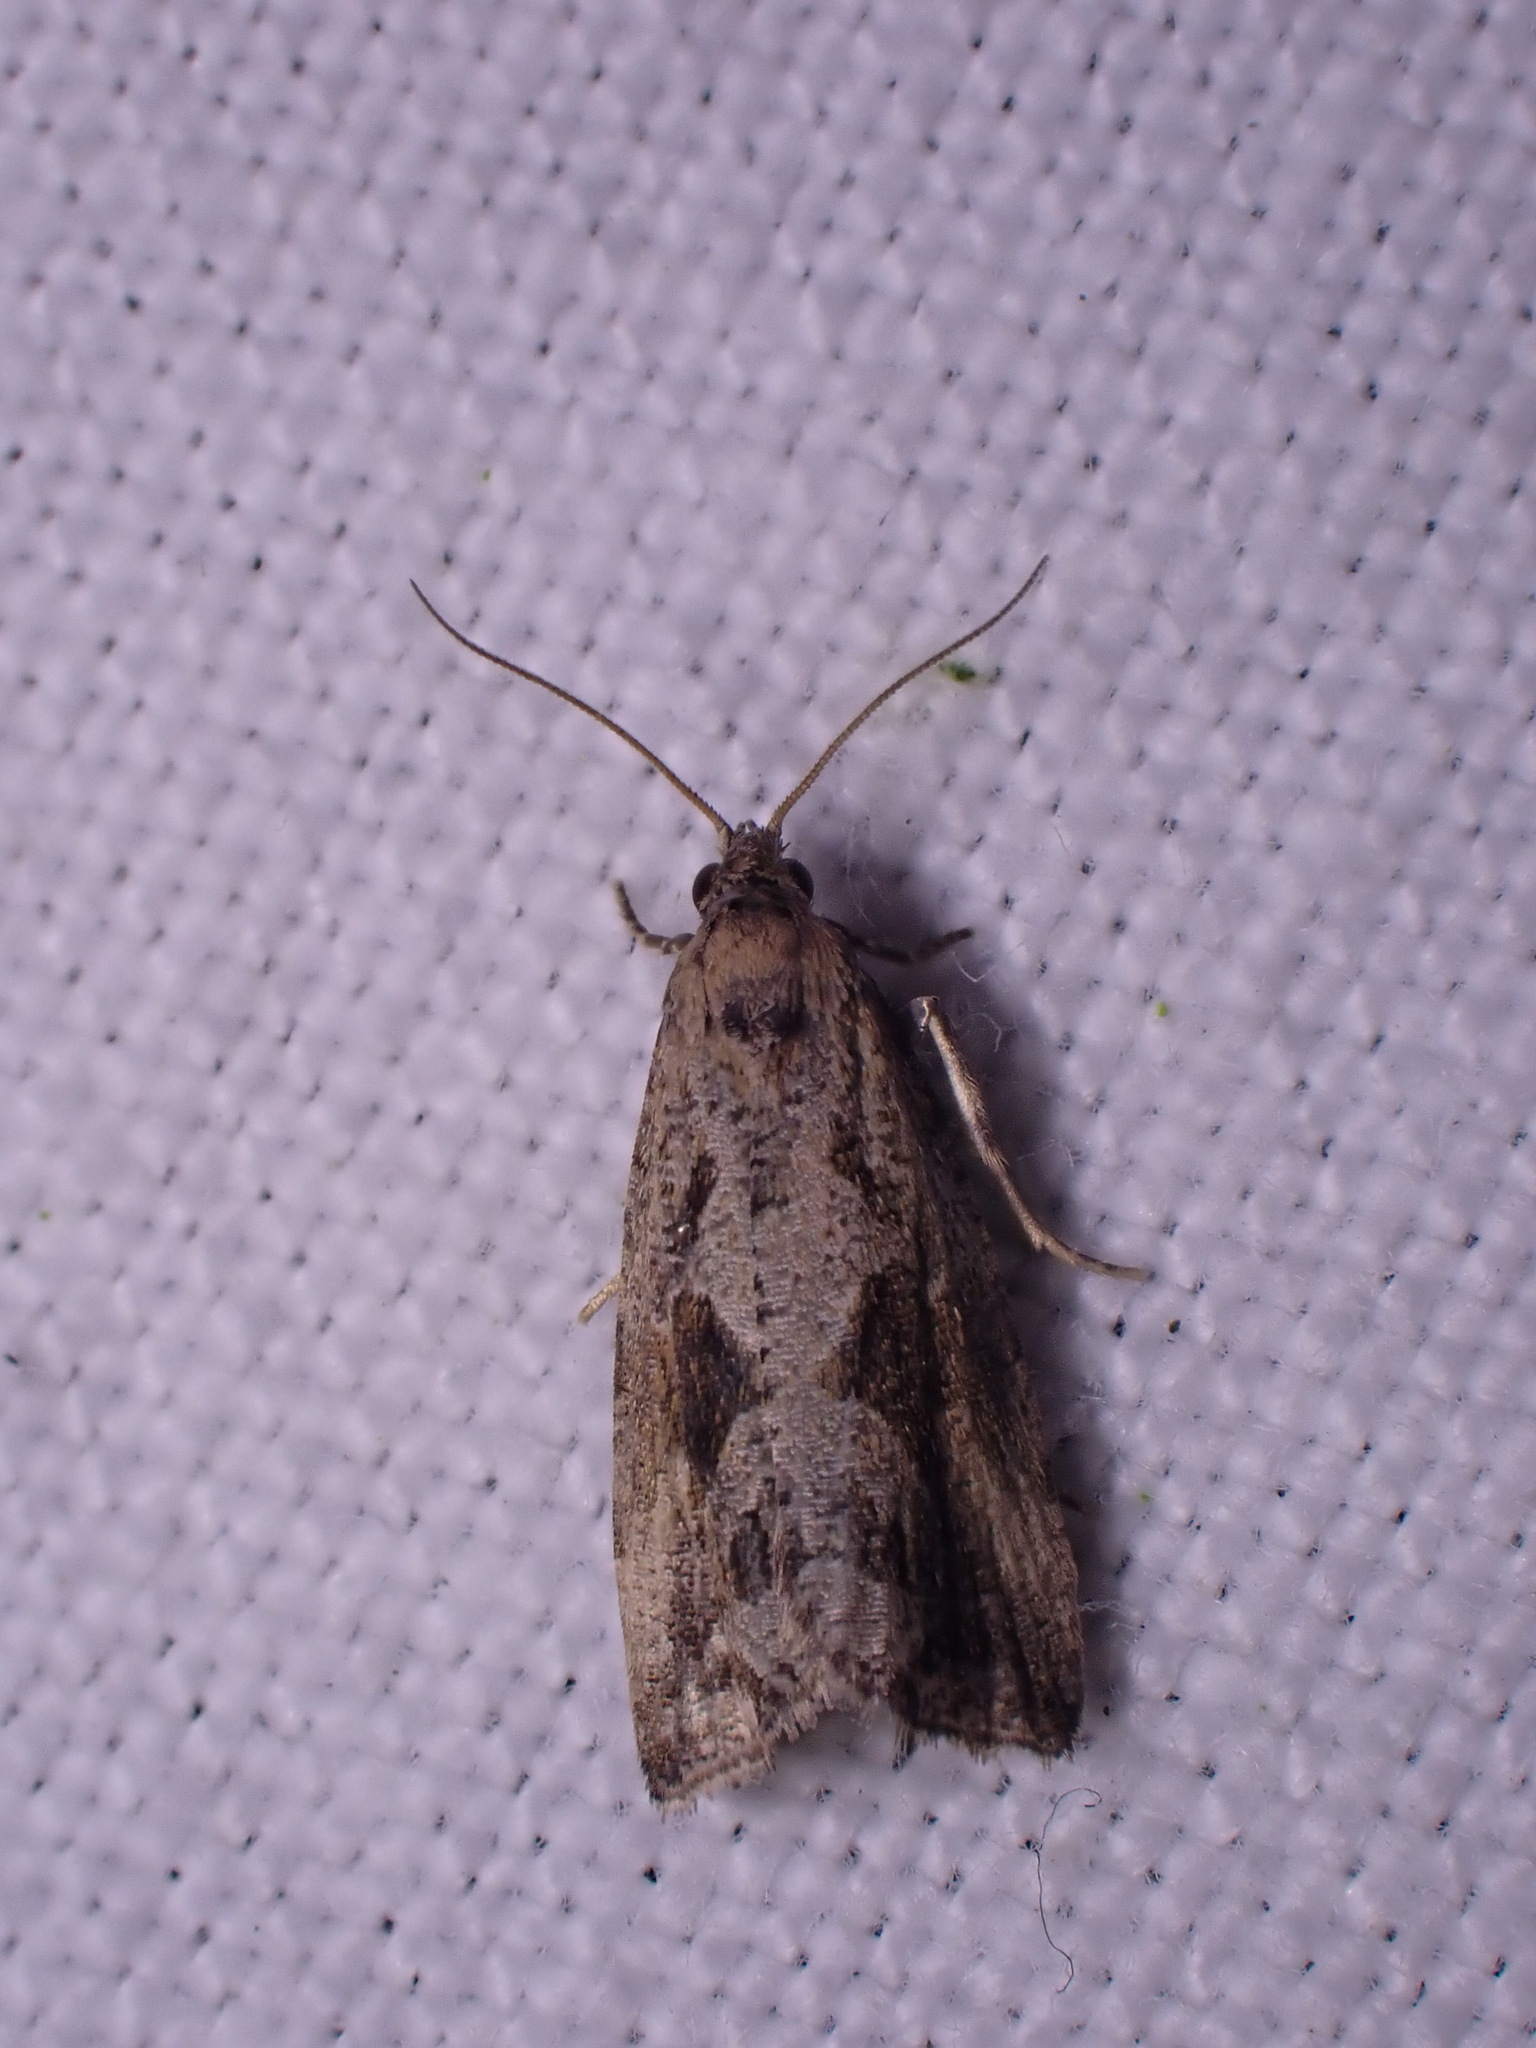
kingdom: Animalia
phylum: Arthropoda
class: Insecta
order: Lepidoptera
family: Tortricidae
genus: Endothenia
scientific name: Endothenia quadrimaculana
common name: Tortricid moth
